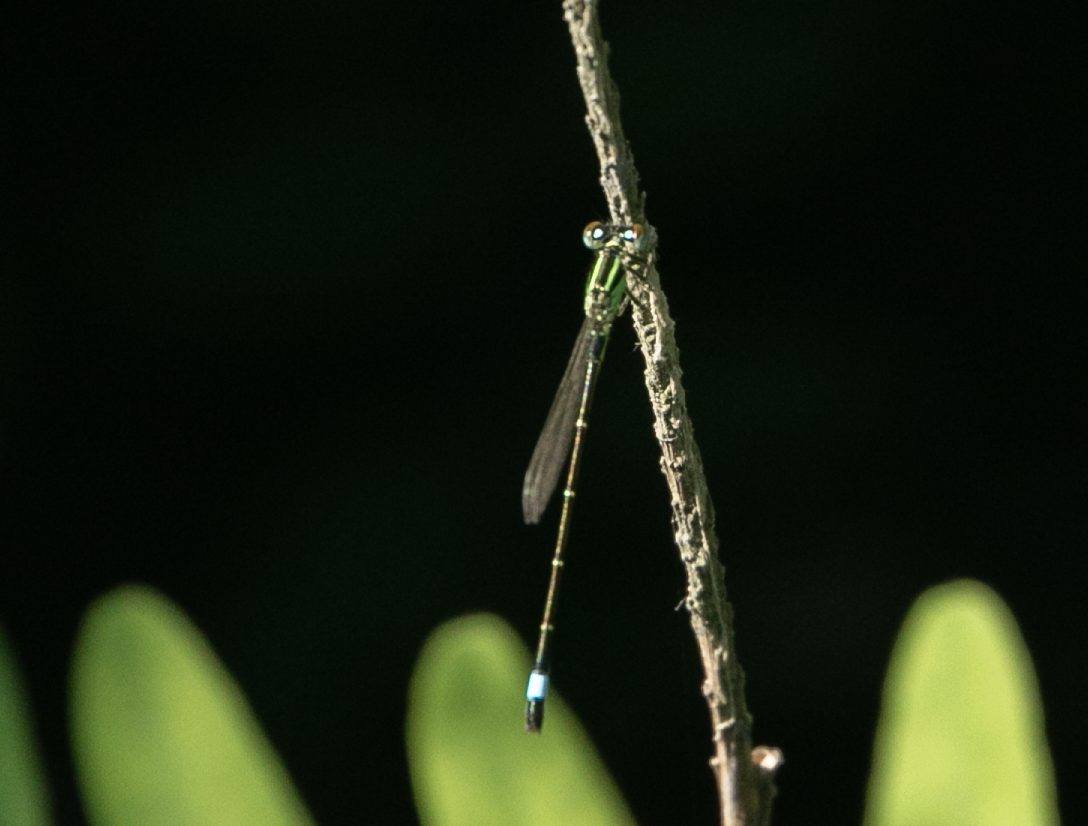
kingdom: Animalia
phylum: Arthropoda
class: Insecta
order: Odonata
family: Coenagrionidae
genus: Ischnura
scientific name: Ischnura elegans
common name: Blue-tailed damselfly
